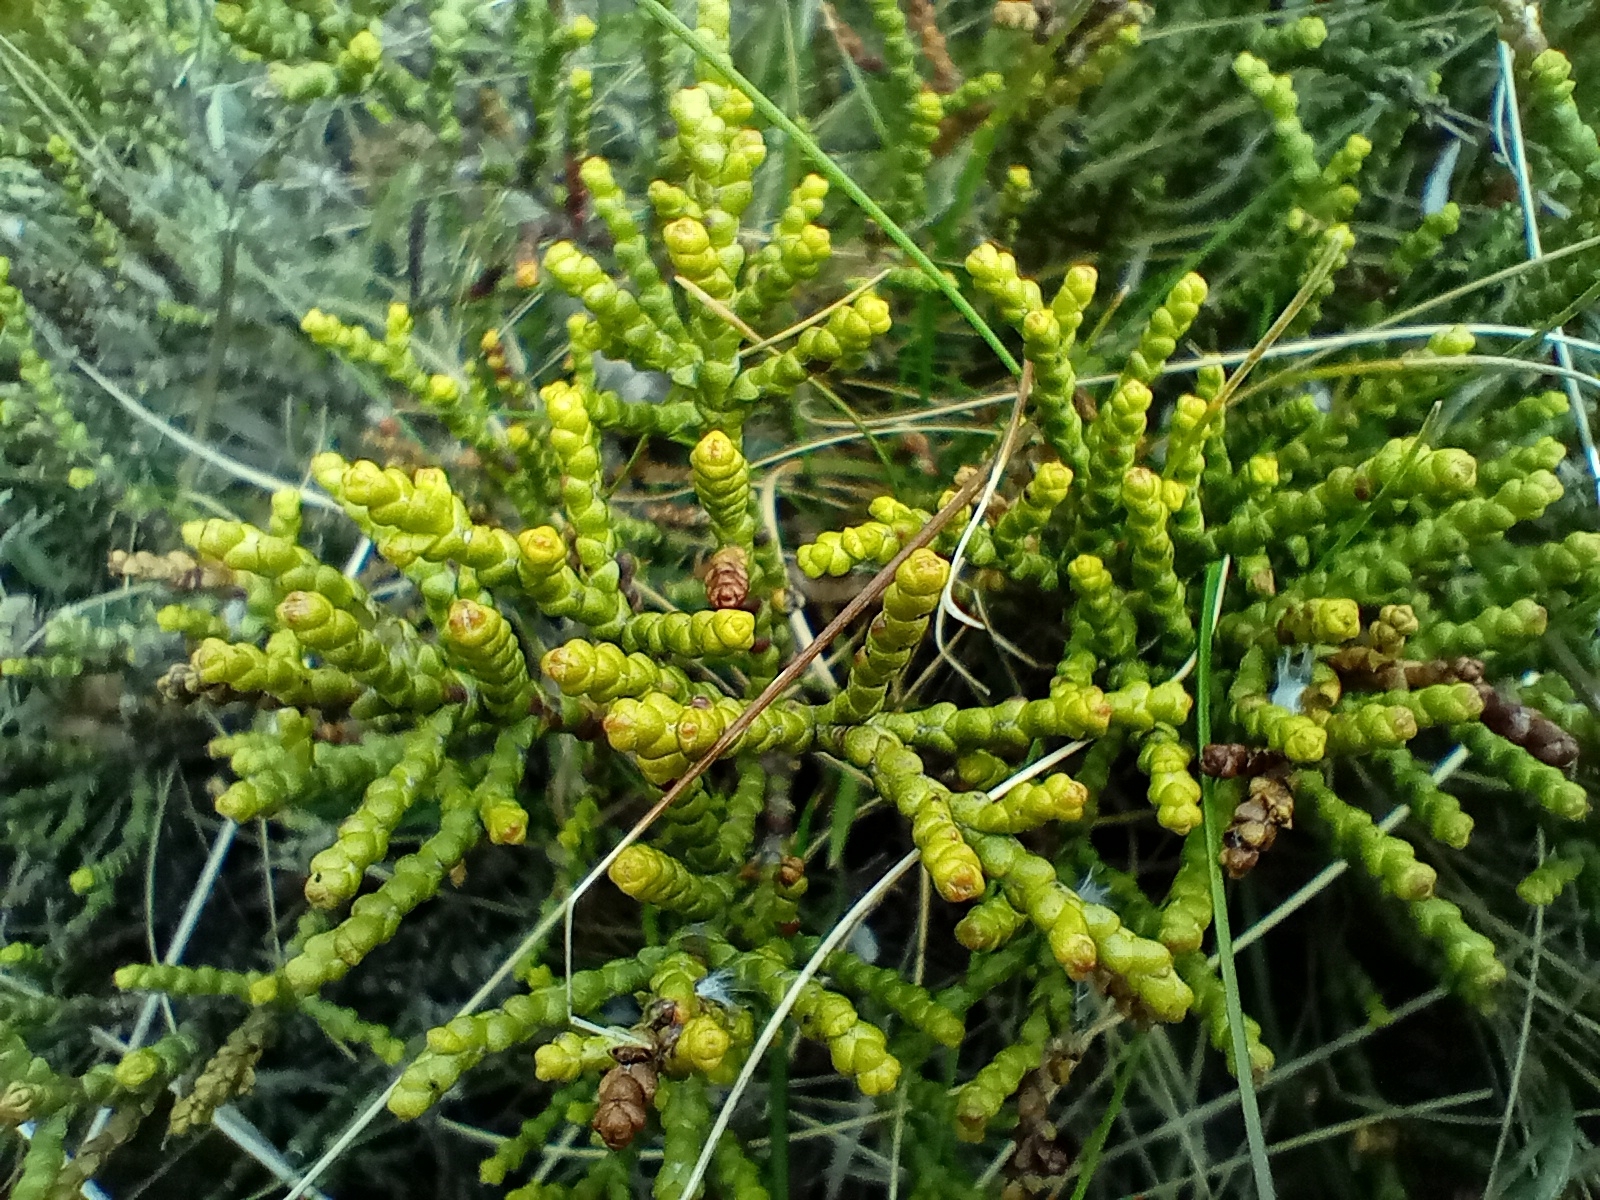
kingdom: Plantae
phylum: Tracheophyta
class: Magnoliopsida
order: Lamiales
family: Plantaginaceae
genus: Veronica
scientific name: Veronica propinqua
